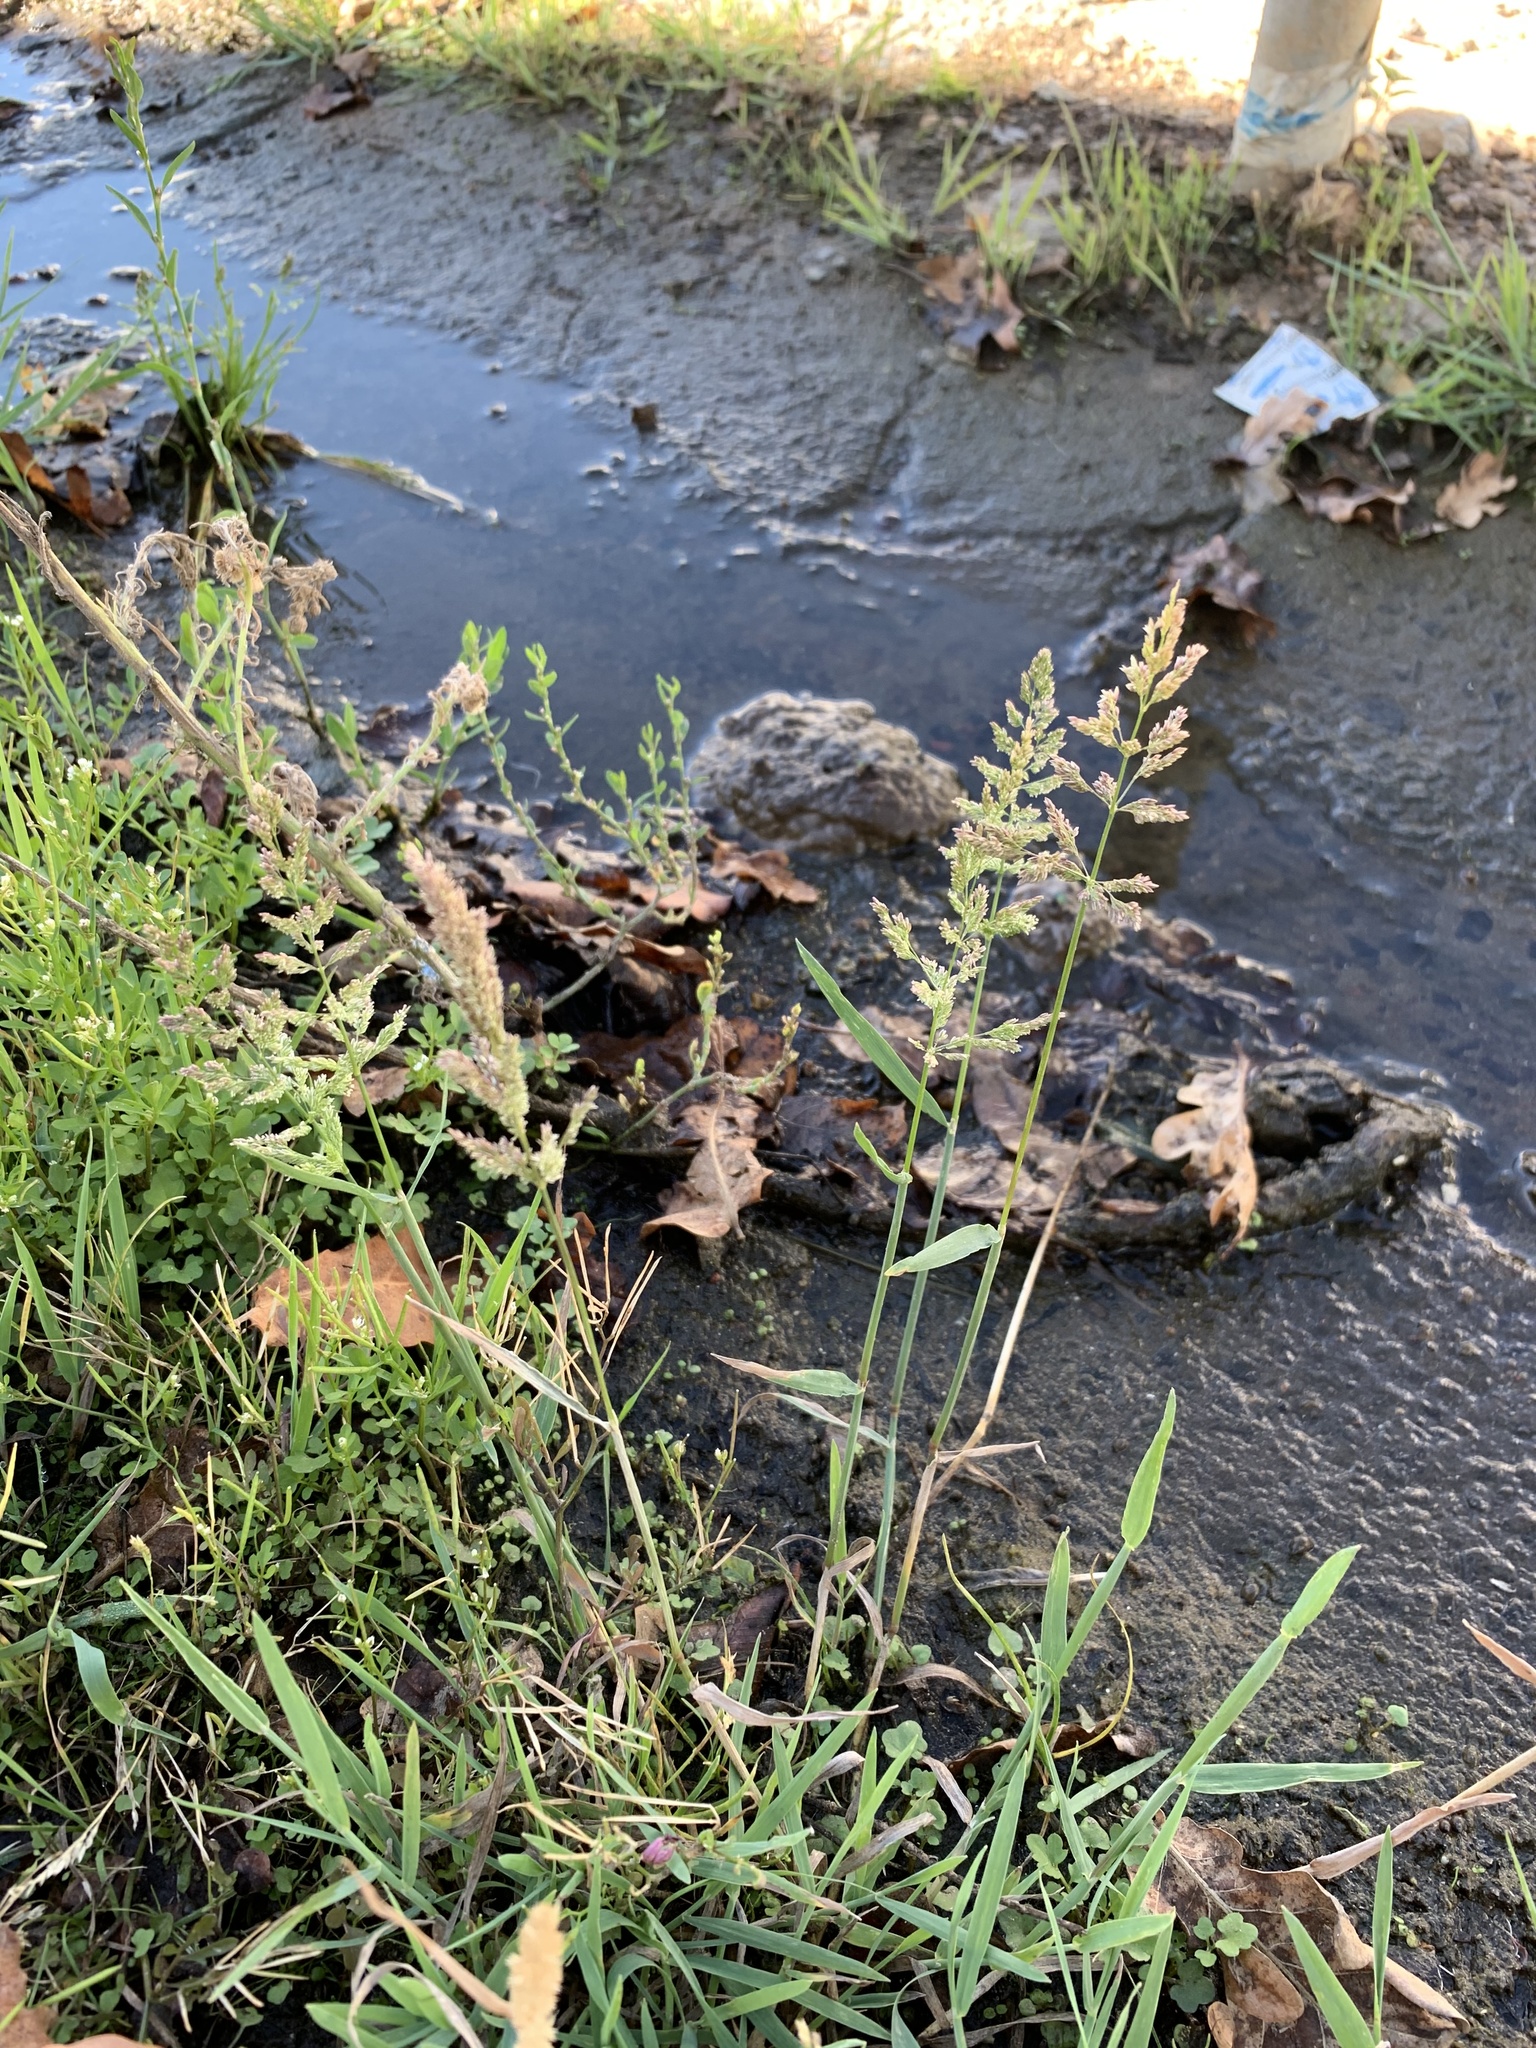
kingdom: Plantae
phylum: Tracheophyta
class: Liliopsida
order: Poales
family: Poaceae
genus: Polypogon
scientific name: Polypogon viridis
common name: Water bent
